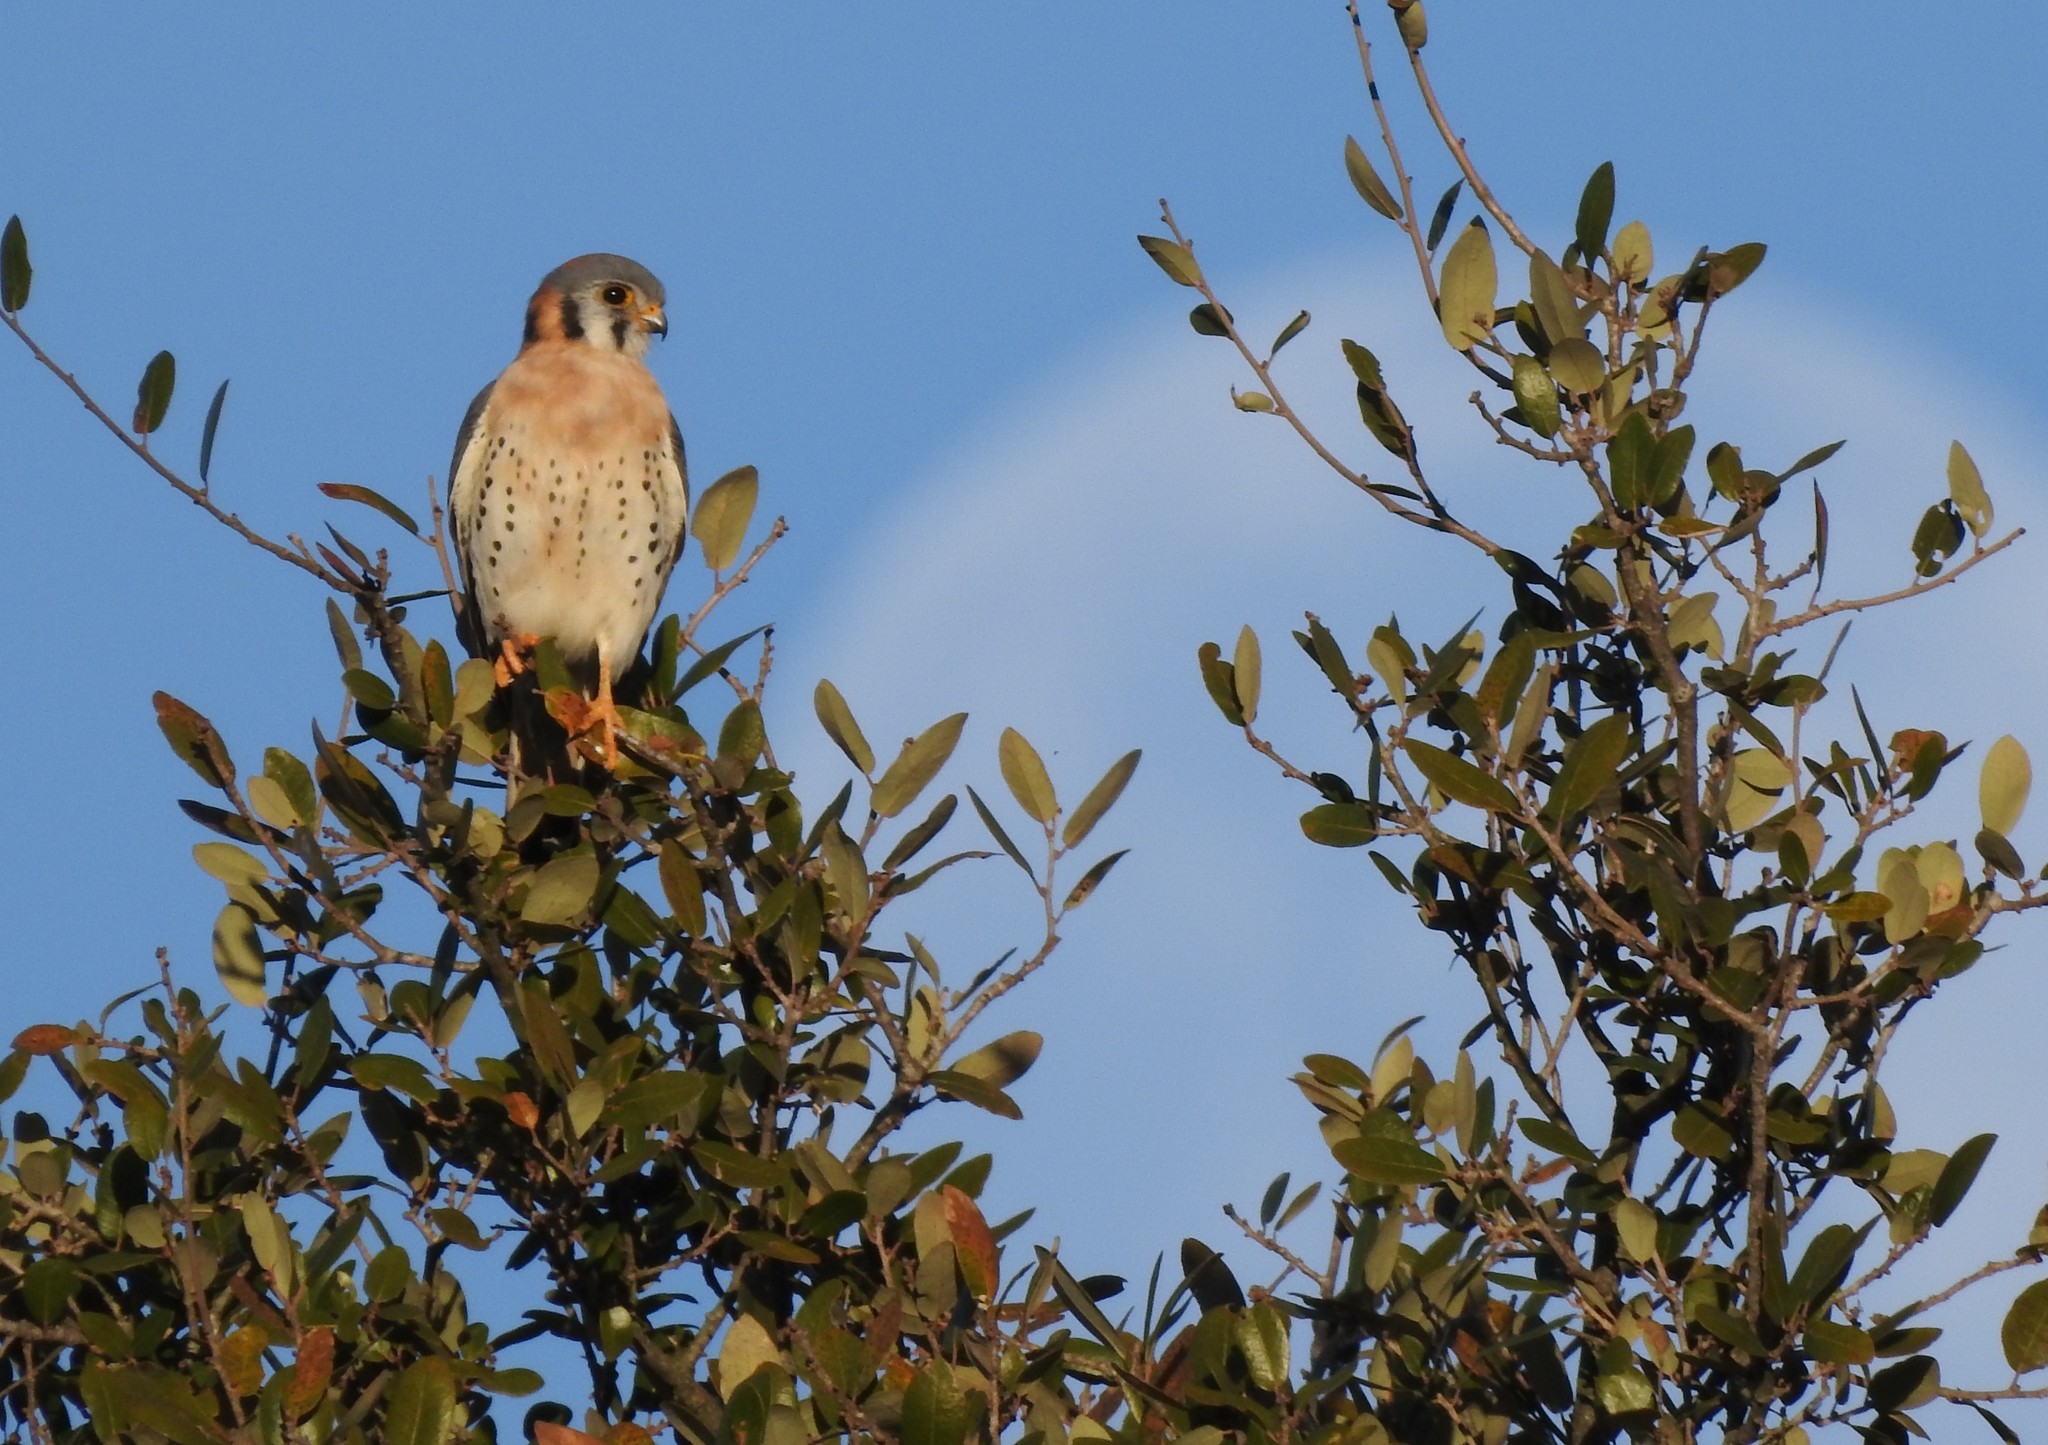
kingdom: Animalia
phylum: Chordata
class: Aves
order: Falconiformes
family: Falconidae
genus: Falco
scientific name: Falco sparverius
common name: American kestrel
